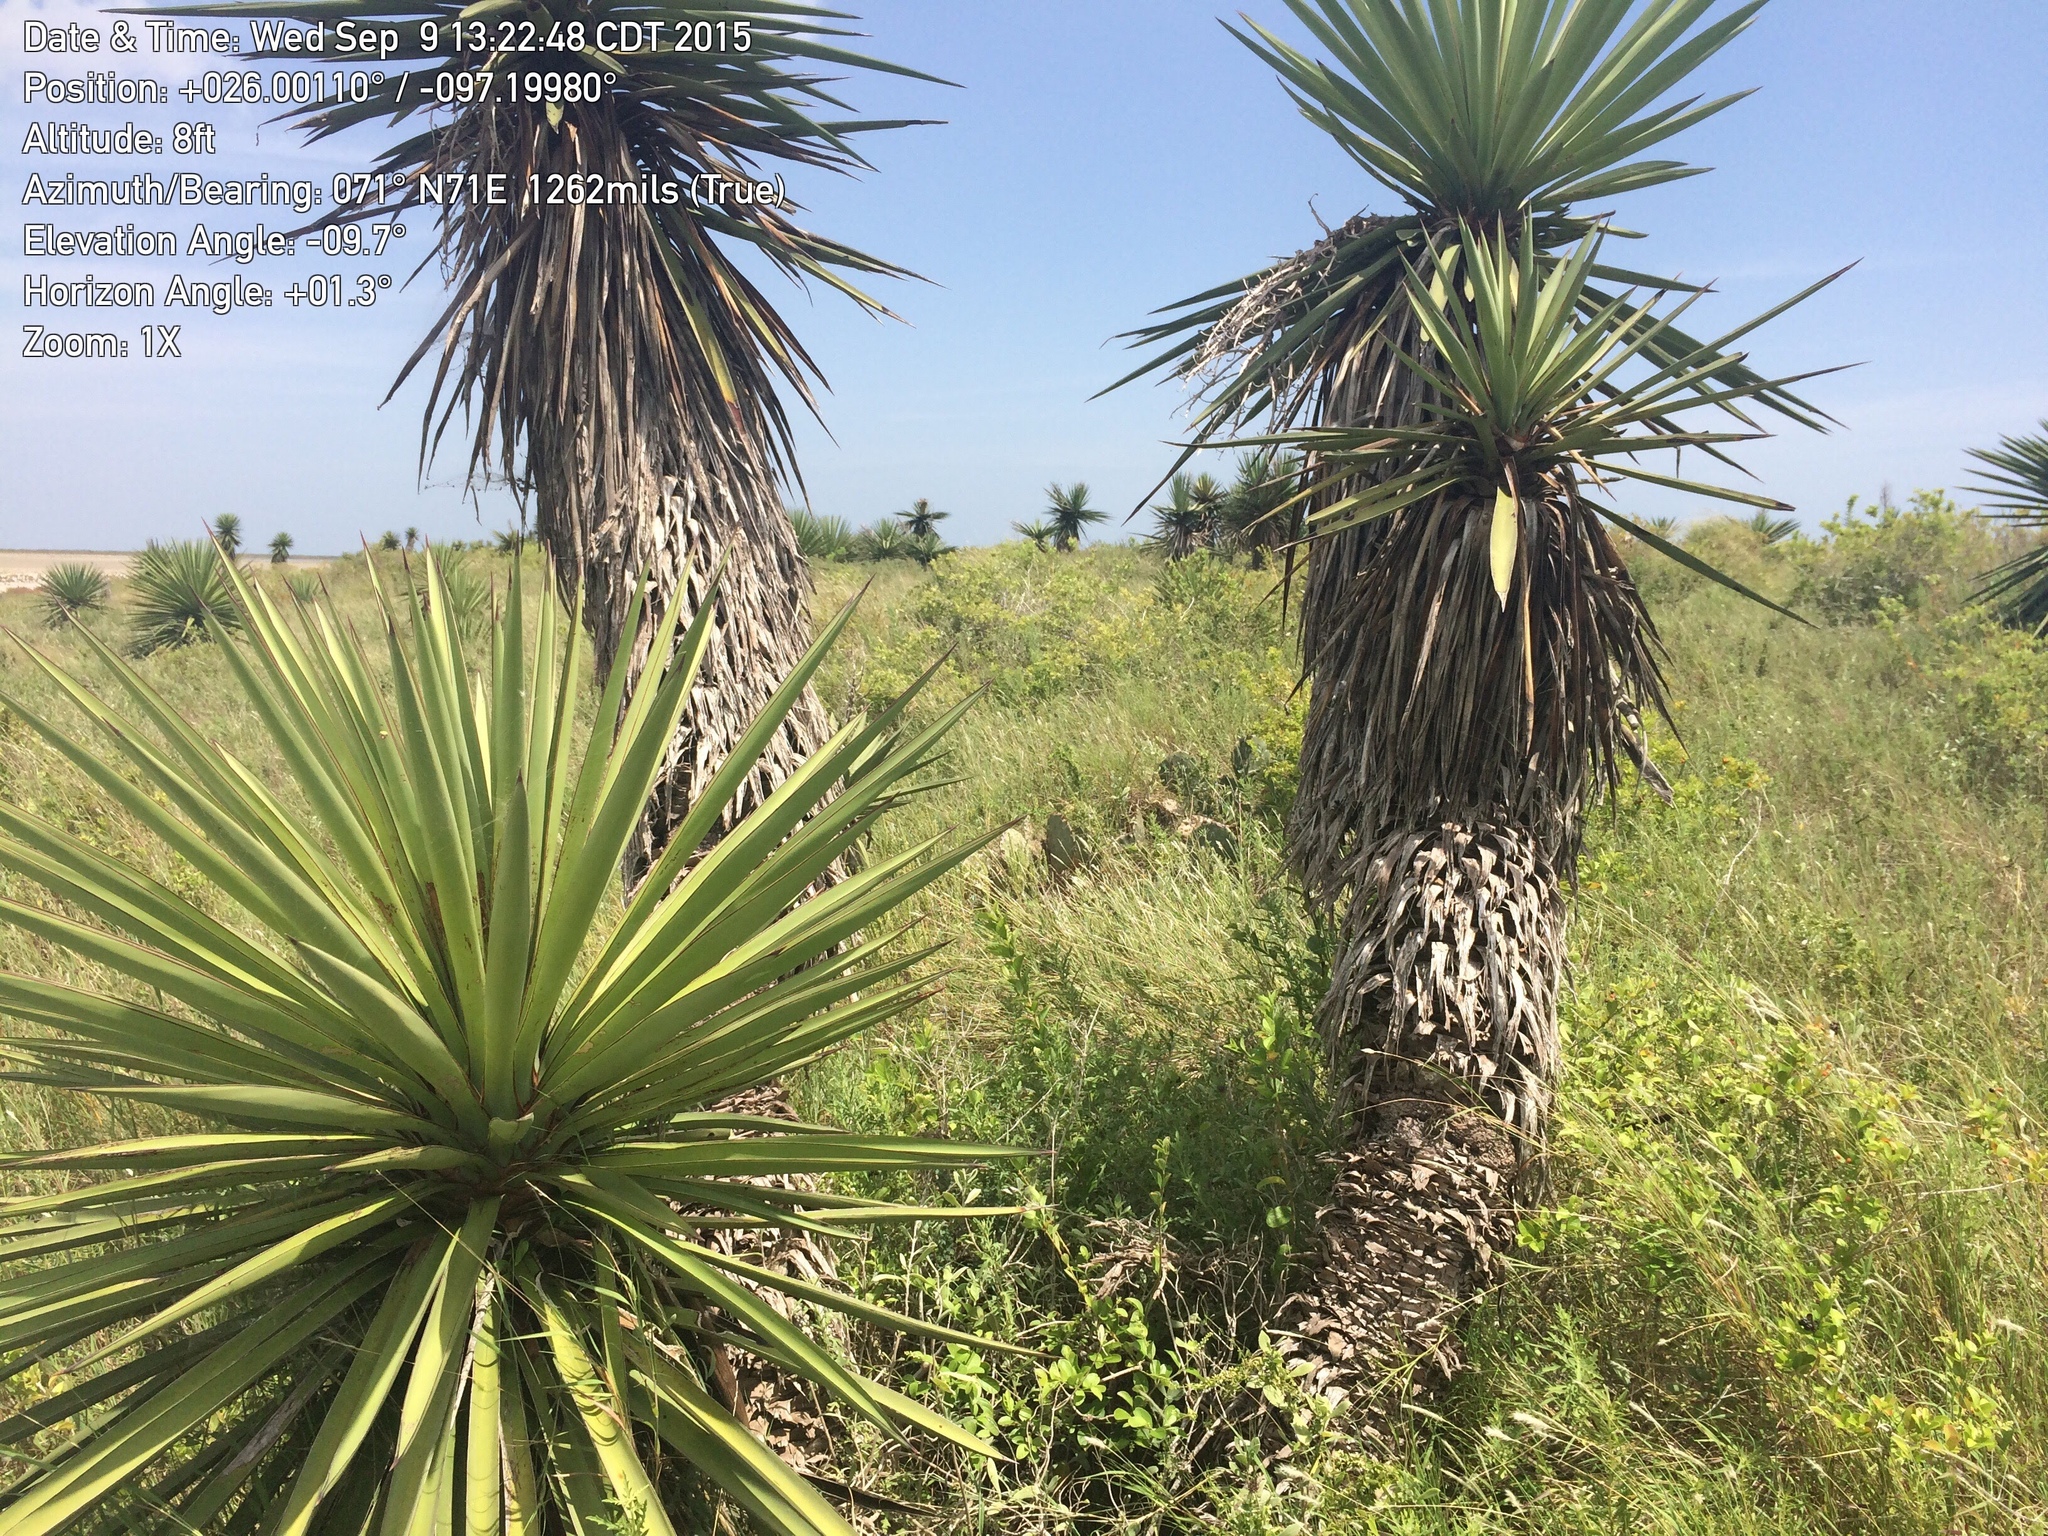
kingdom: Plantae
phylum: Tracheophyta
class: Liliopsida
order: Asparagales
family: Asparagaceae
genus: Yucca
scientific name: Yucca treculiana
